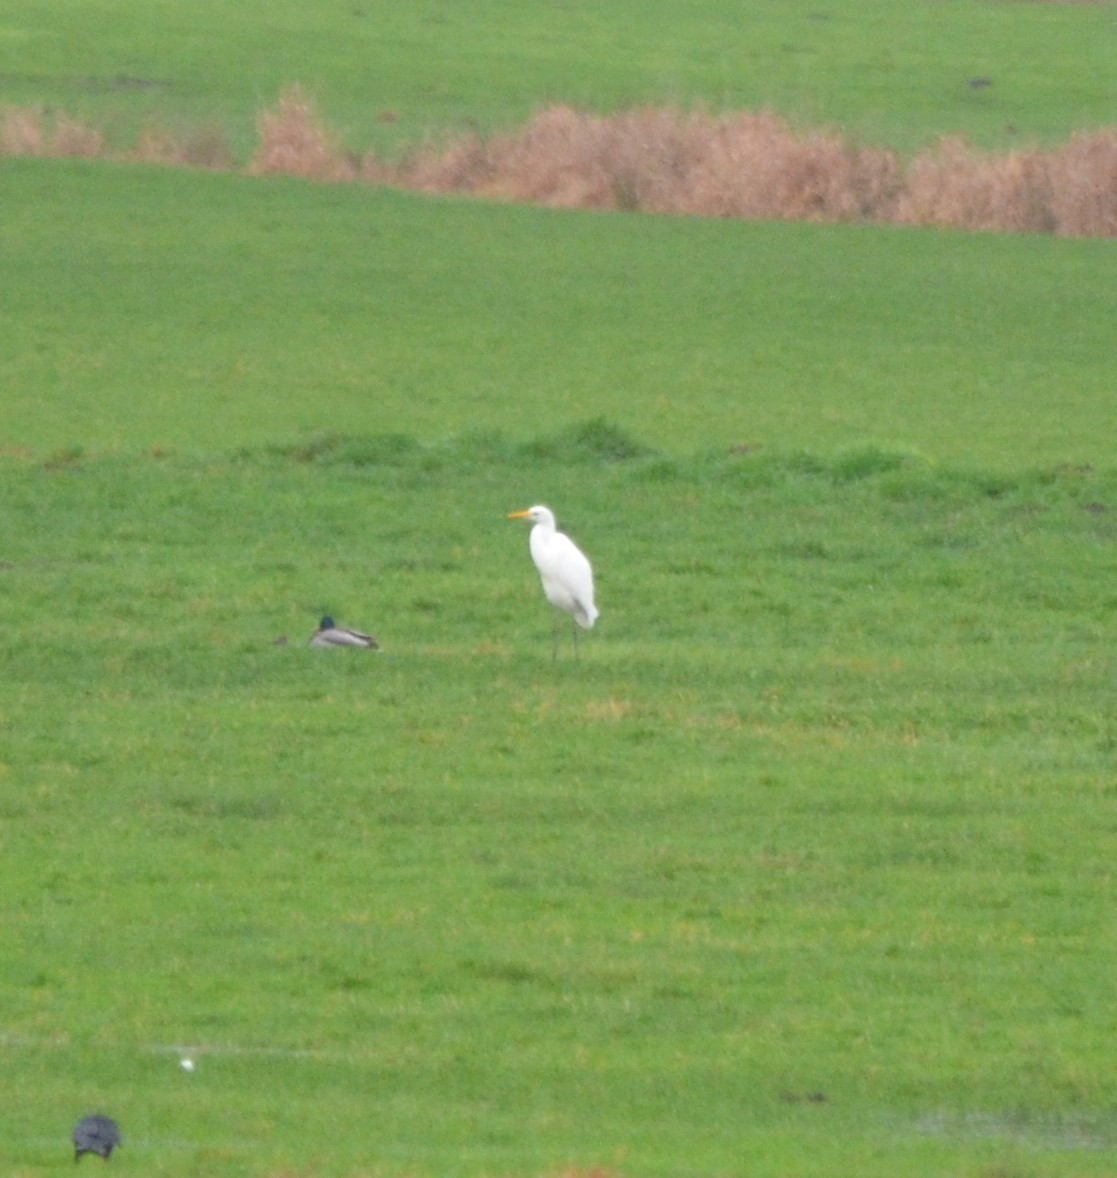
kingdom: Animalia
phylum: Chordata
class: Aves
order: Pelecaniformes
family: Ardeidae
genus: Ardea
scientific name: Ardea alba
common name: Great egret
